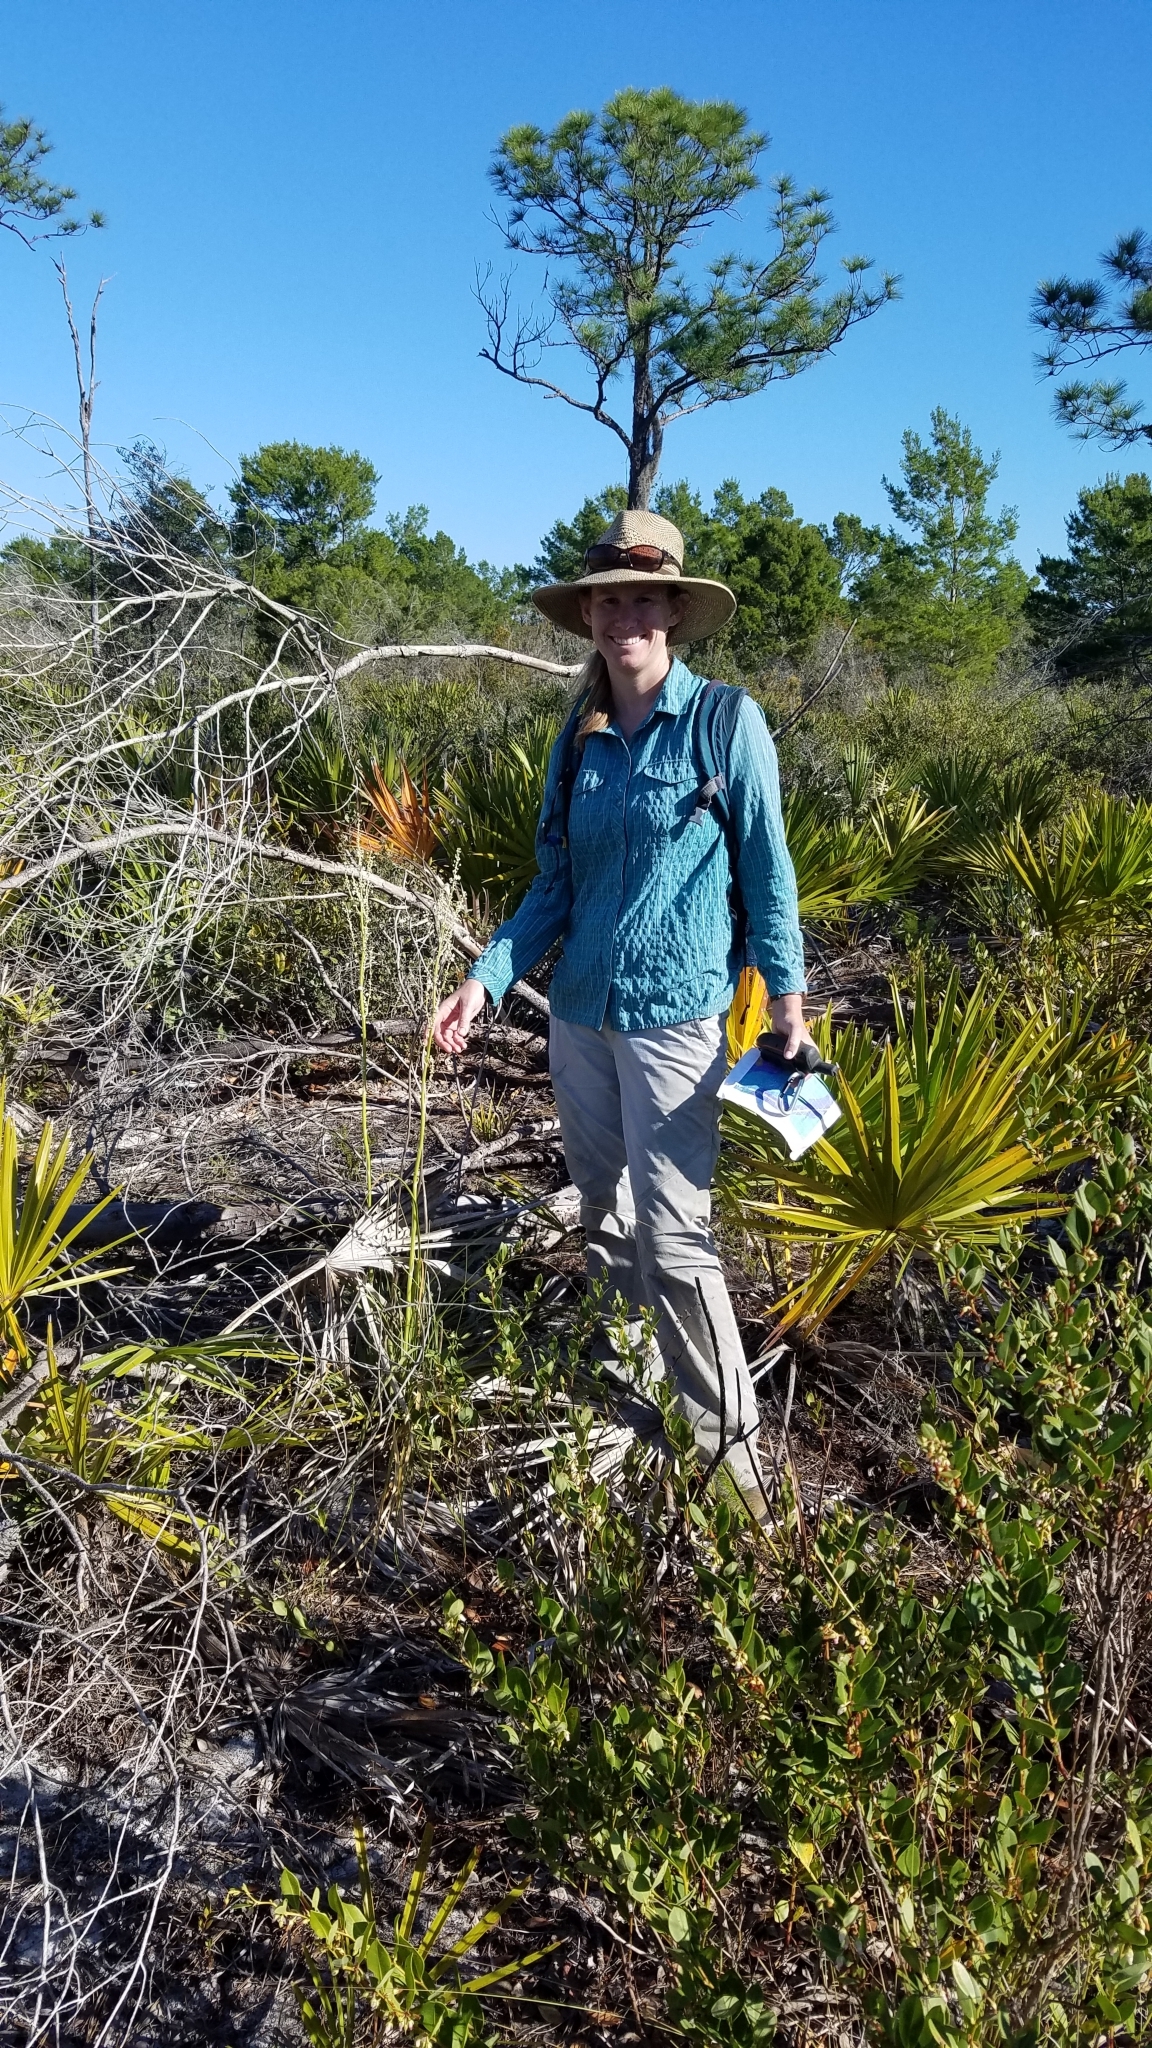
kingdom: Plantae
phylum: Tracheophyta
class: Liliopsida
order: Asparagales
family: Asparagaceae
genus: Nolina
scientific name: Nolina brittoniana
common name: Britton's bear-grass
